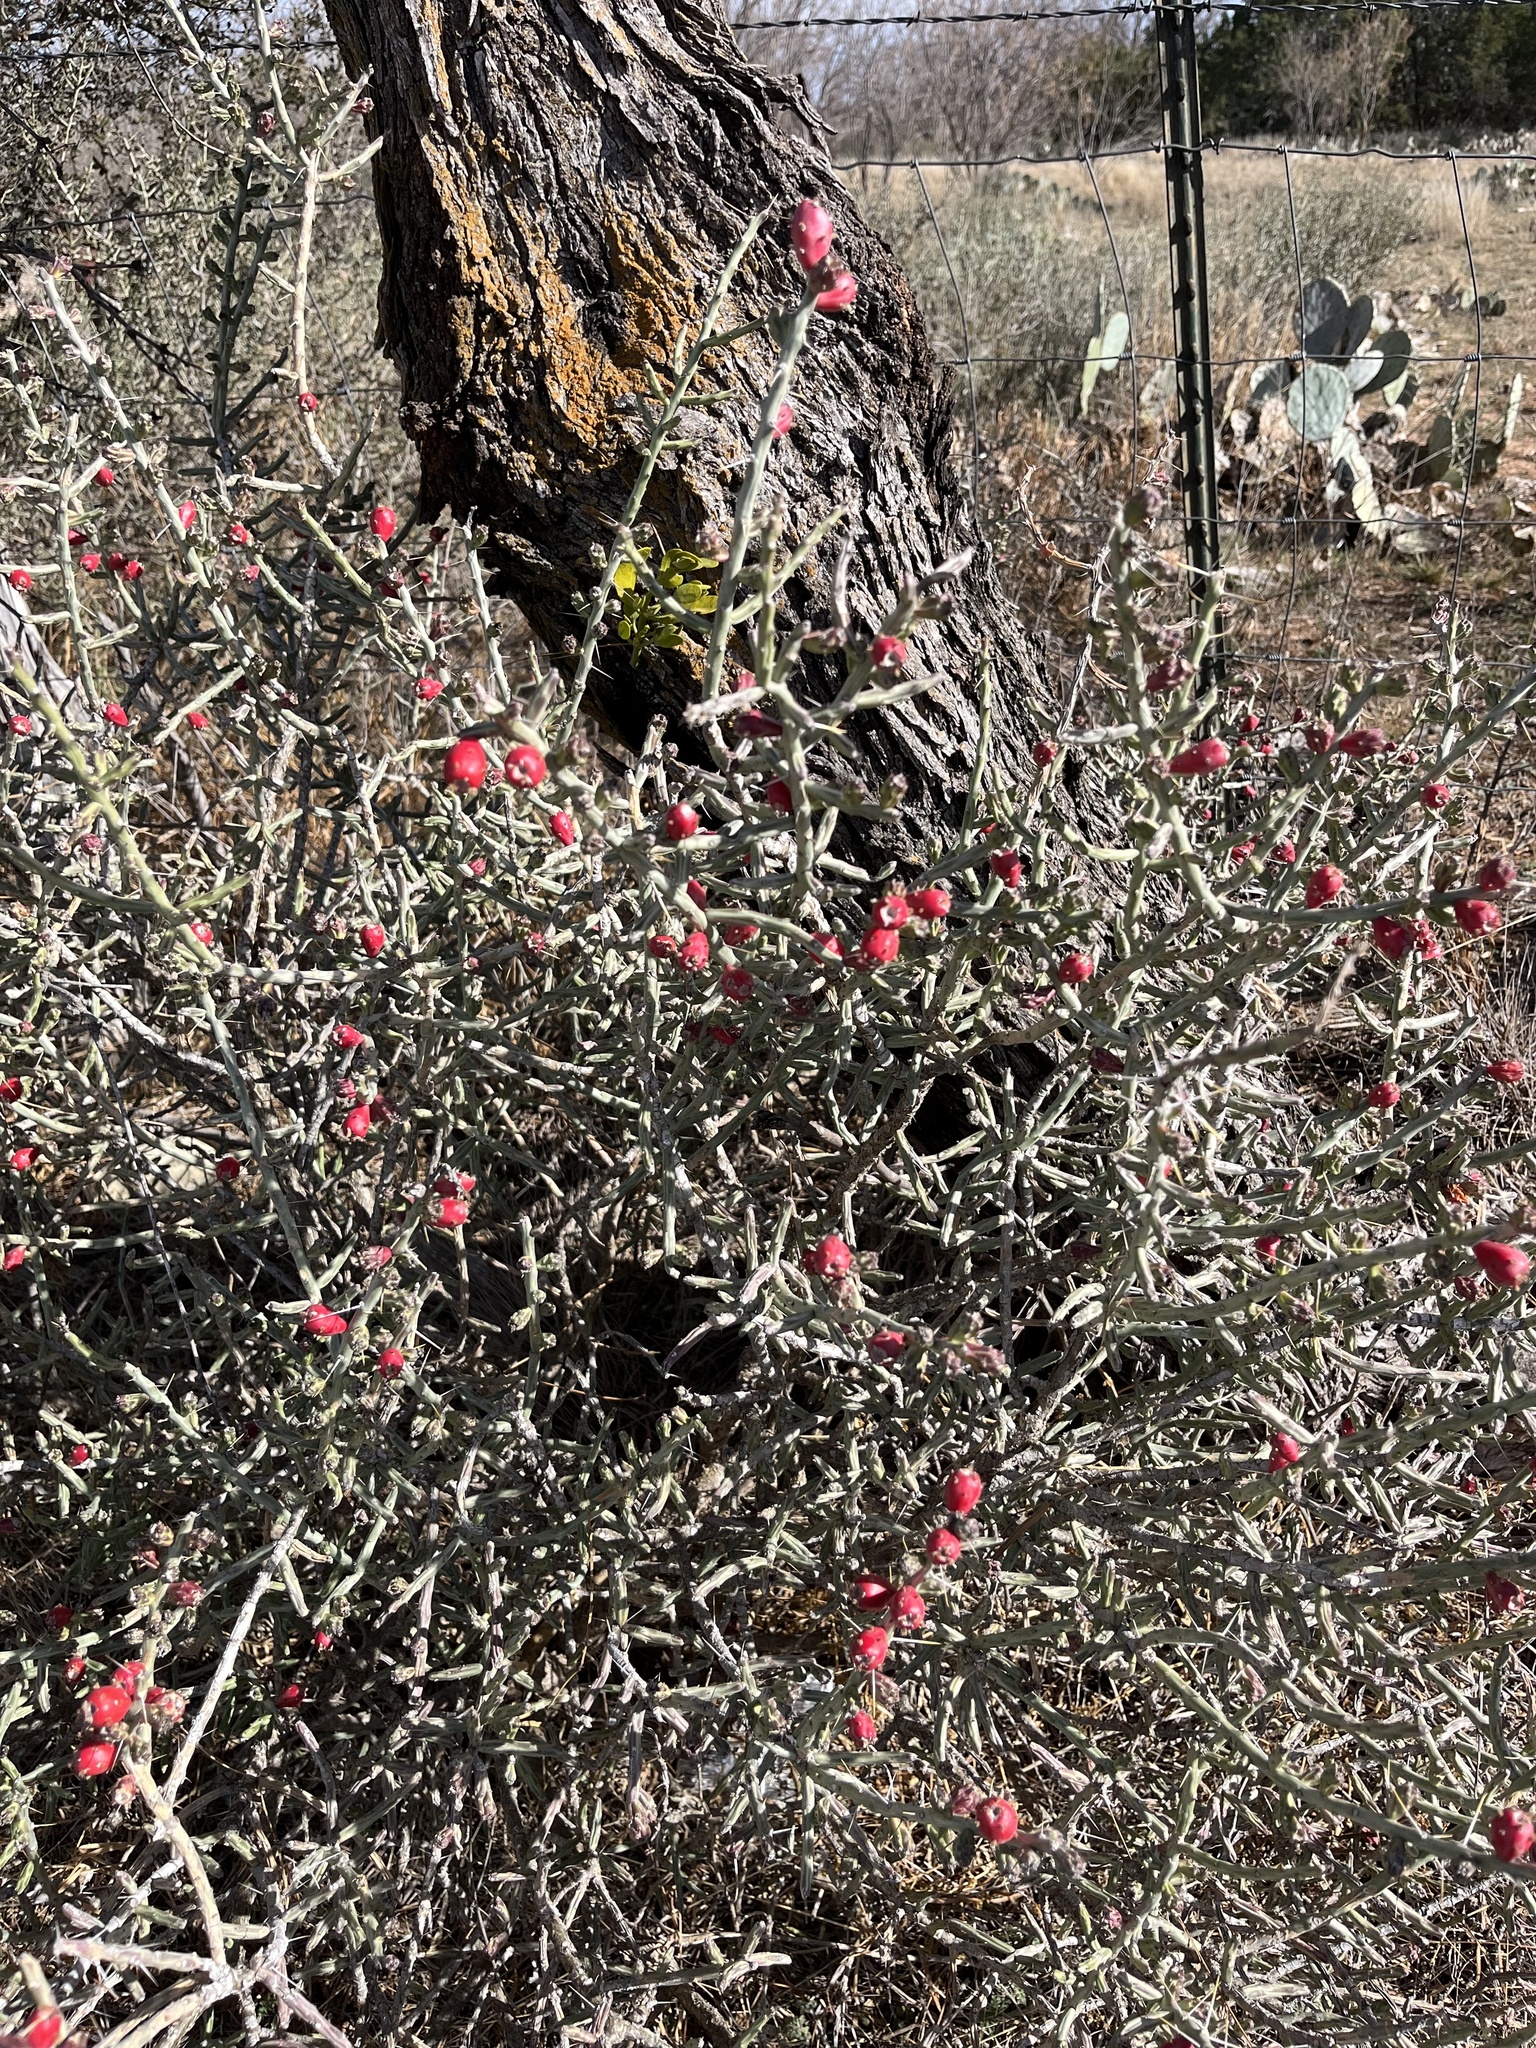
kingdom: Plantae
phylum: Tracheophyta
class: Magnoliopsida
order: Caryophyllales
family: Cactaceae
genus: Cylindropuntia
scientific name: Cylindropuntia leptocaulis
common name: Christmas cactus
